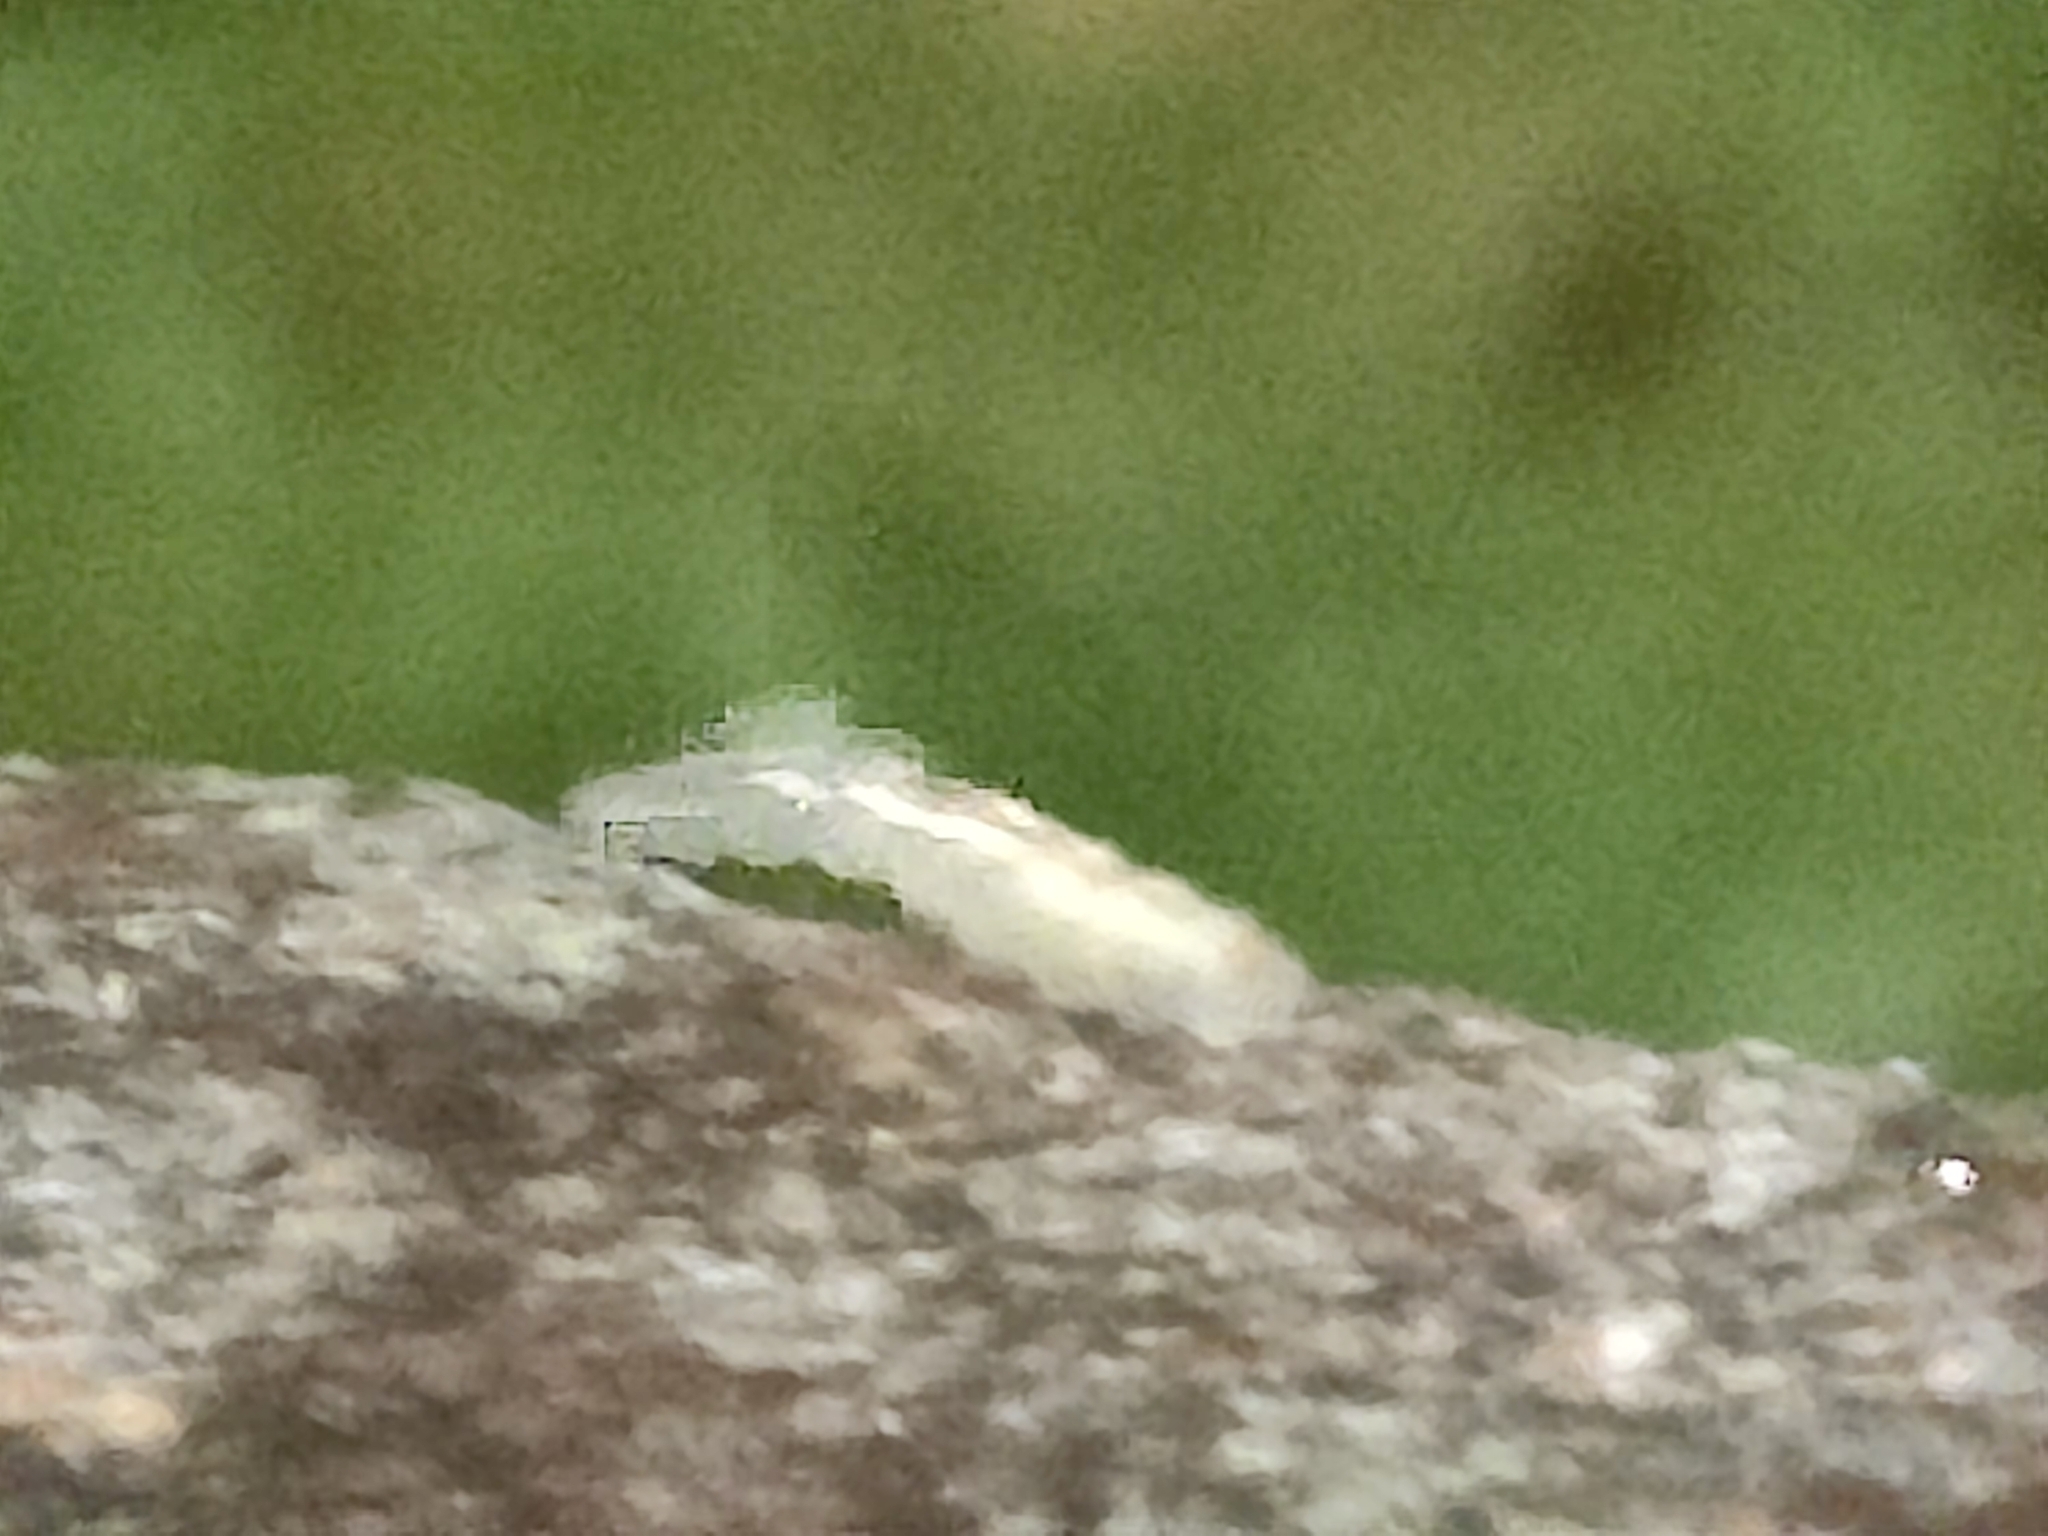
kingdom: Animalia
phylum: Arthropoda
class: Insecta
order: Diptera
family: Syrphidae
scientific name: Syrphidae
